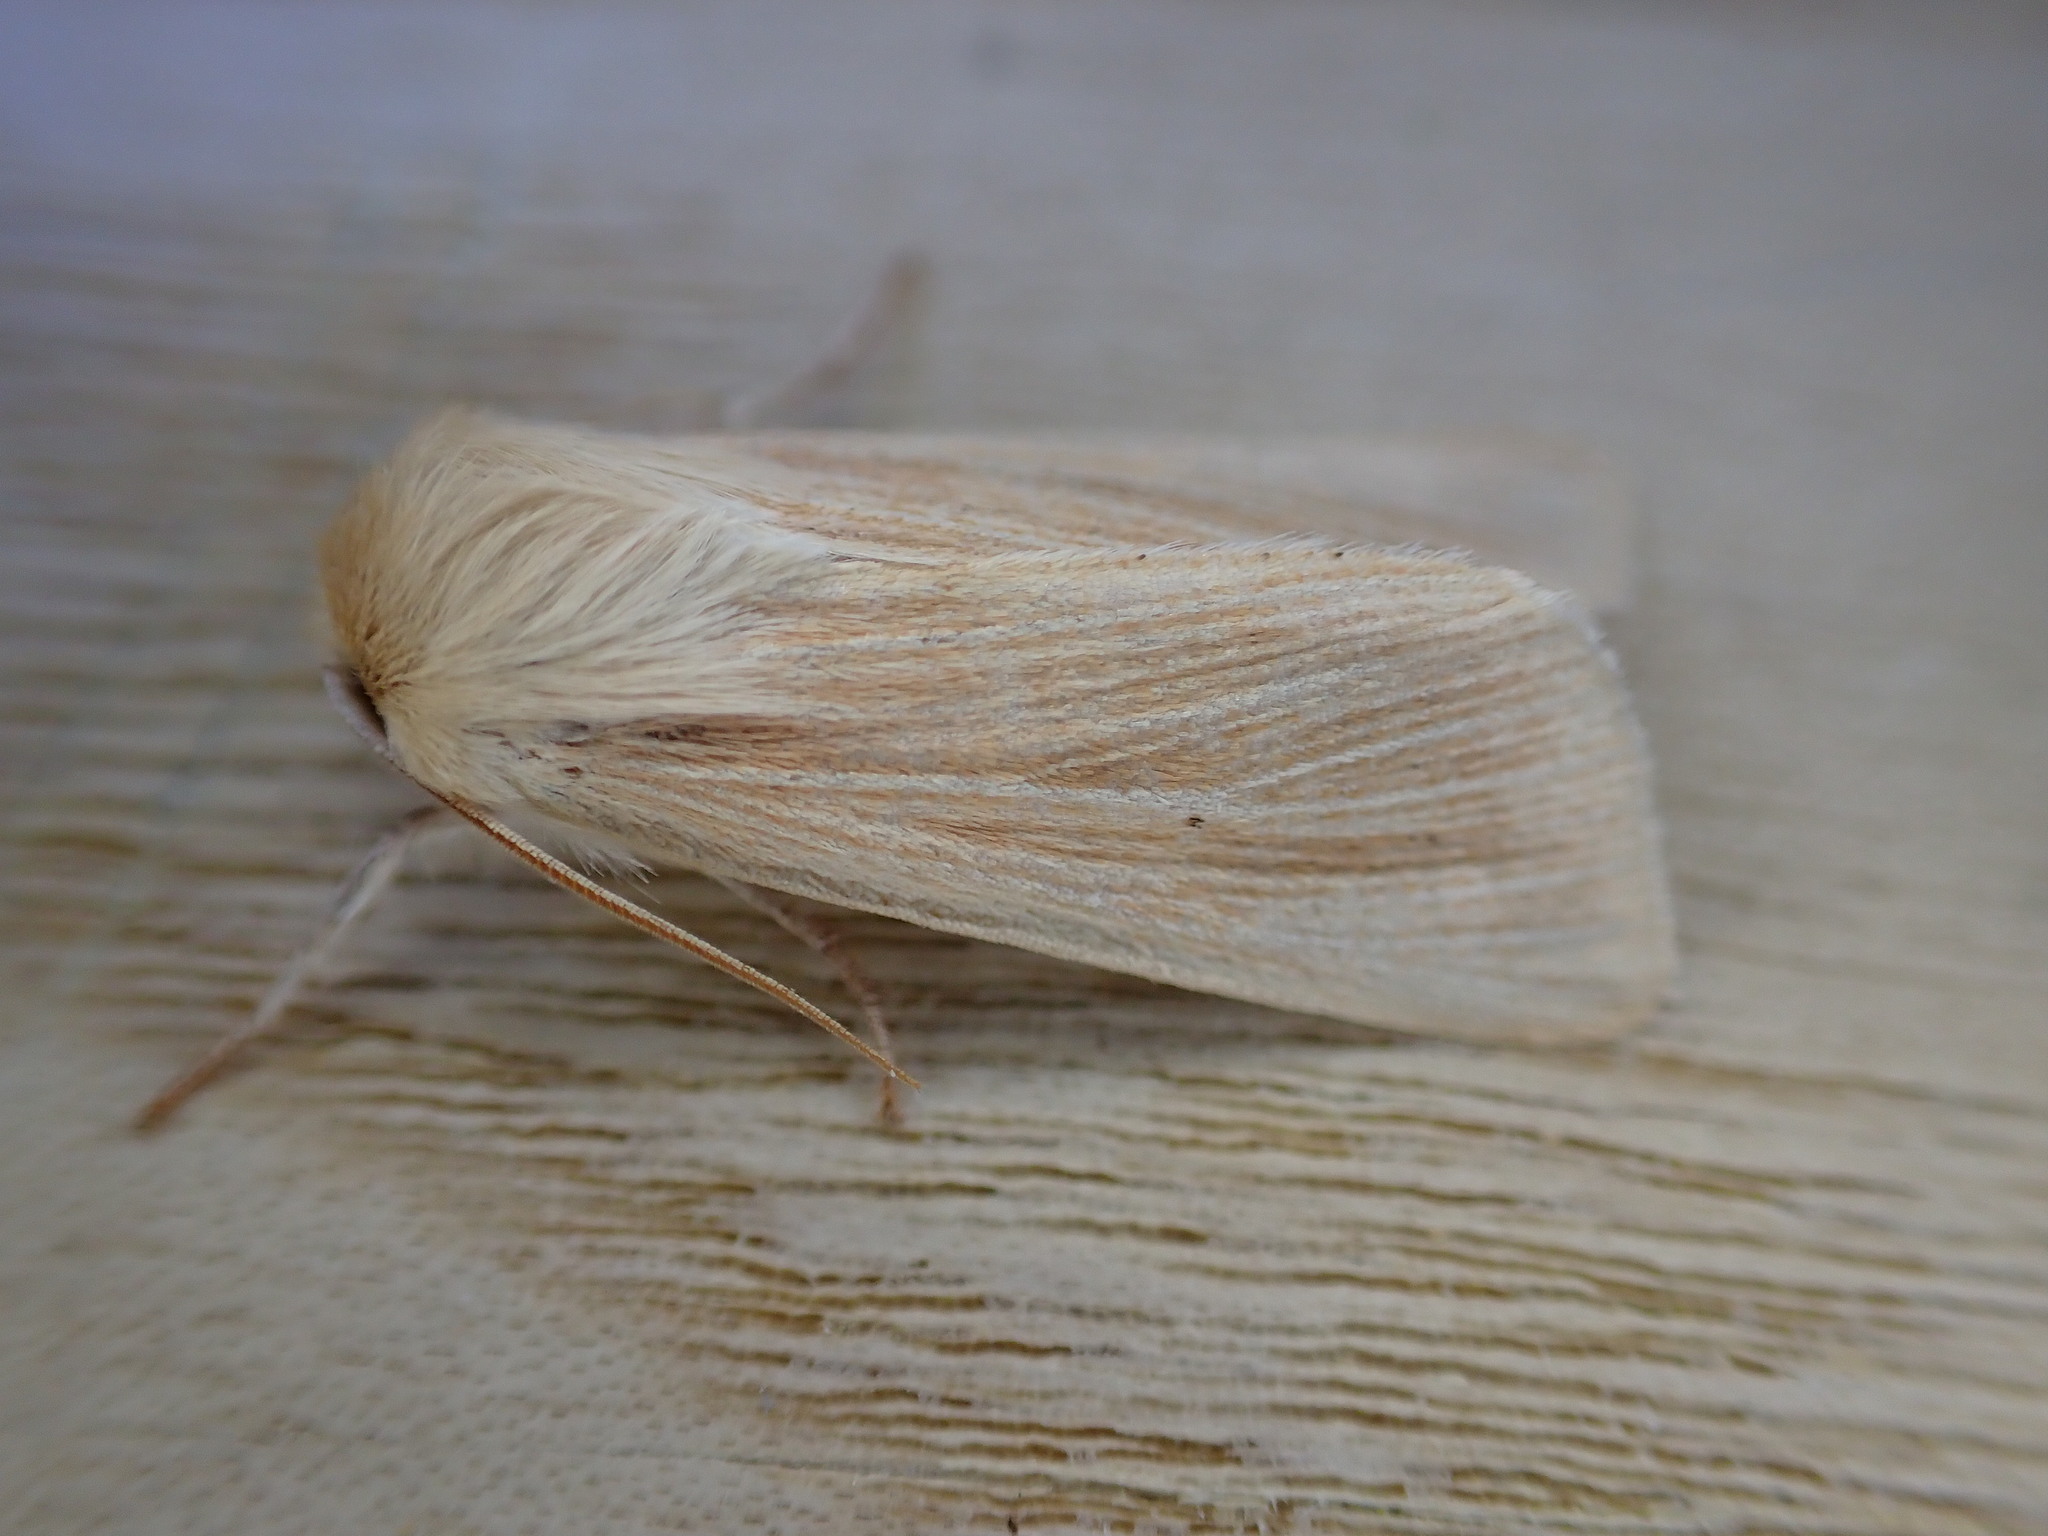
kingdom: Animalia
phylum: Arthropoda
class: Insecta
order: Lepidoptera
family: Noctuidae
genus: Mythimna
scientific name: Mythimna pallens
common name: Common wainscot
